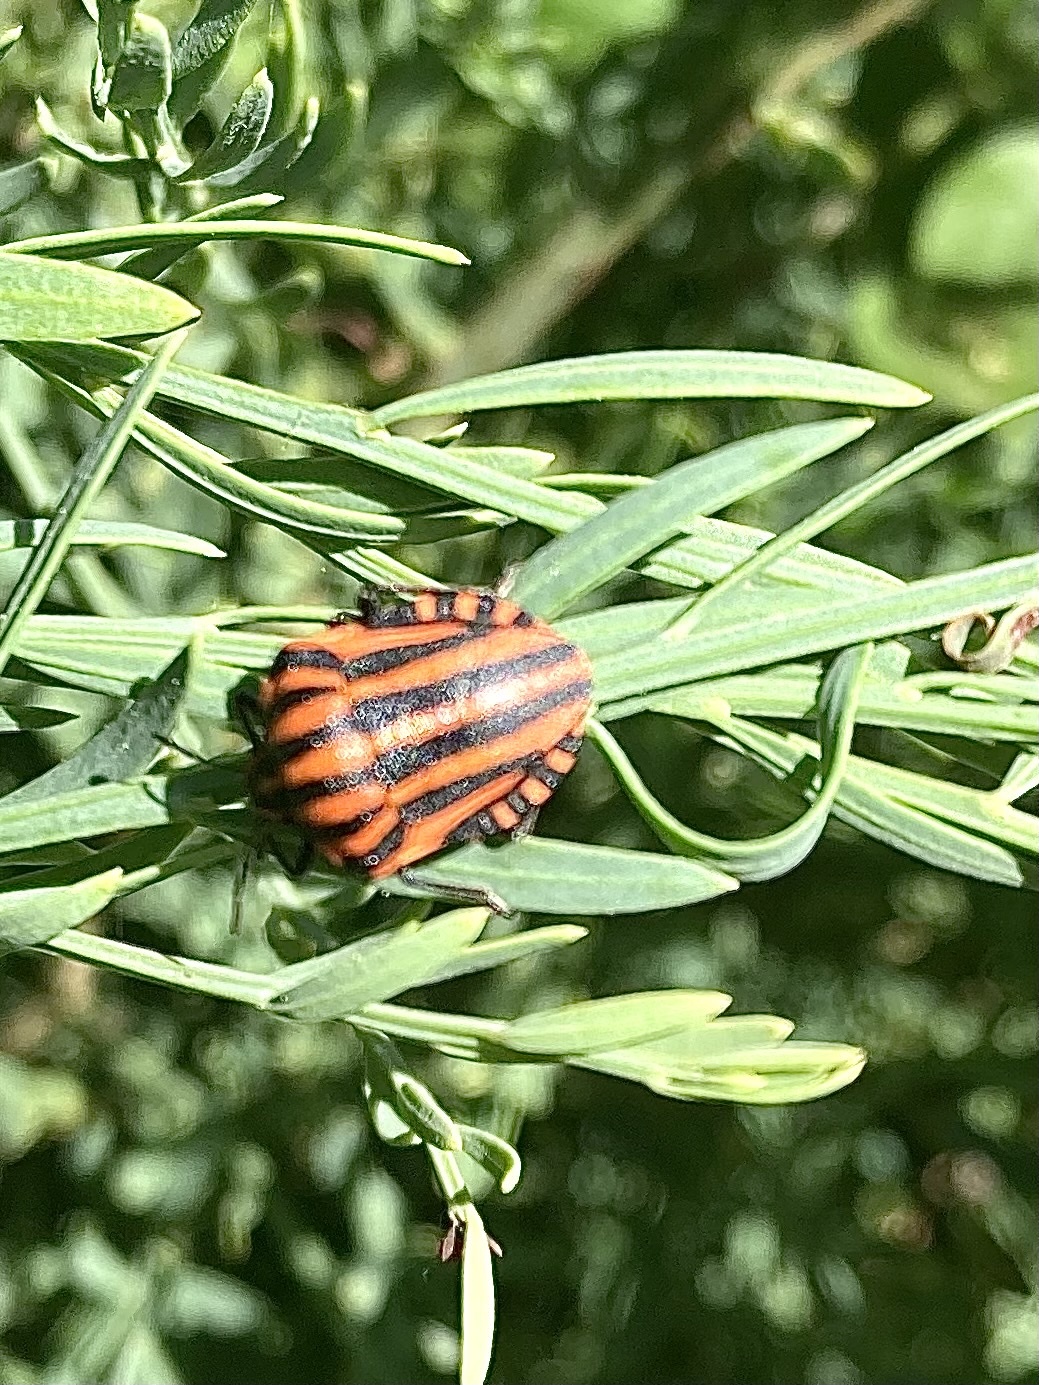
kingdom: Animalia
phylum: Arthropoda
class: Insecta
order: Hemiptera
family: Pentatomidae
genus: Graphosoma
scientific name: Graphosoma italicum
